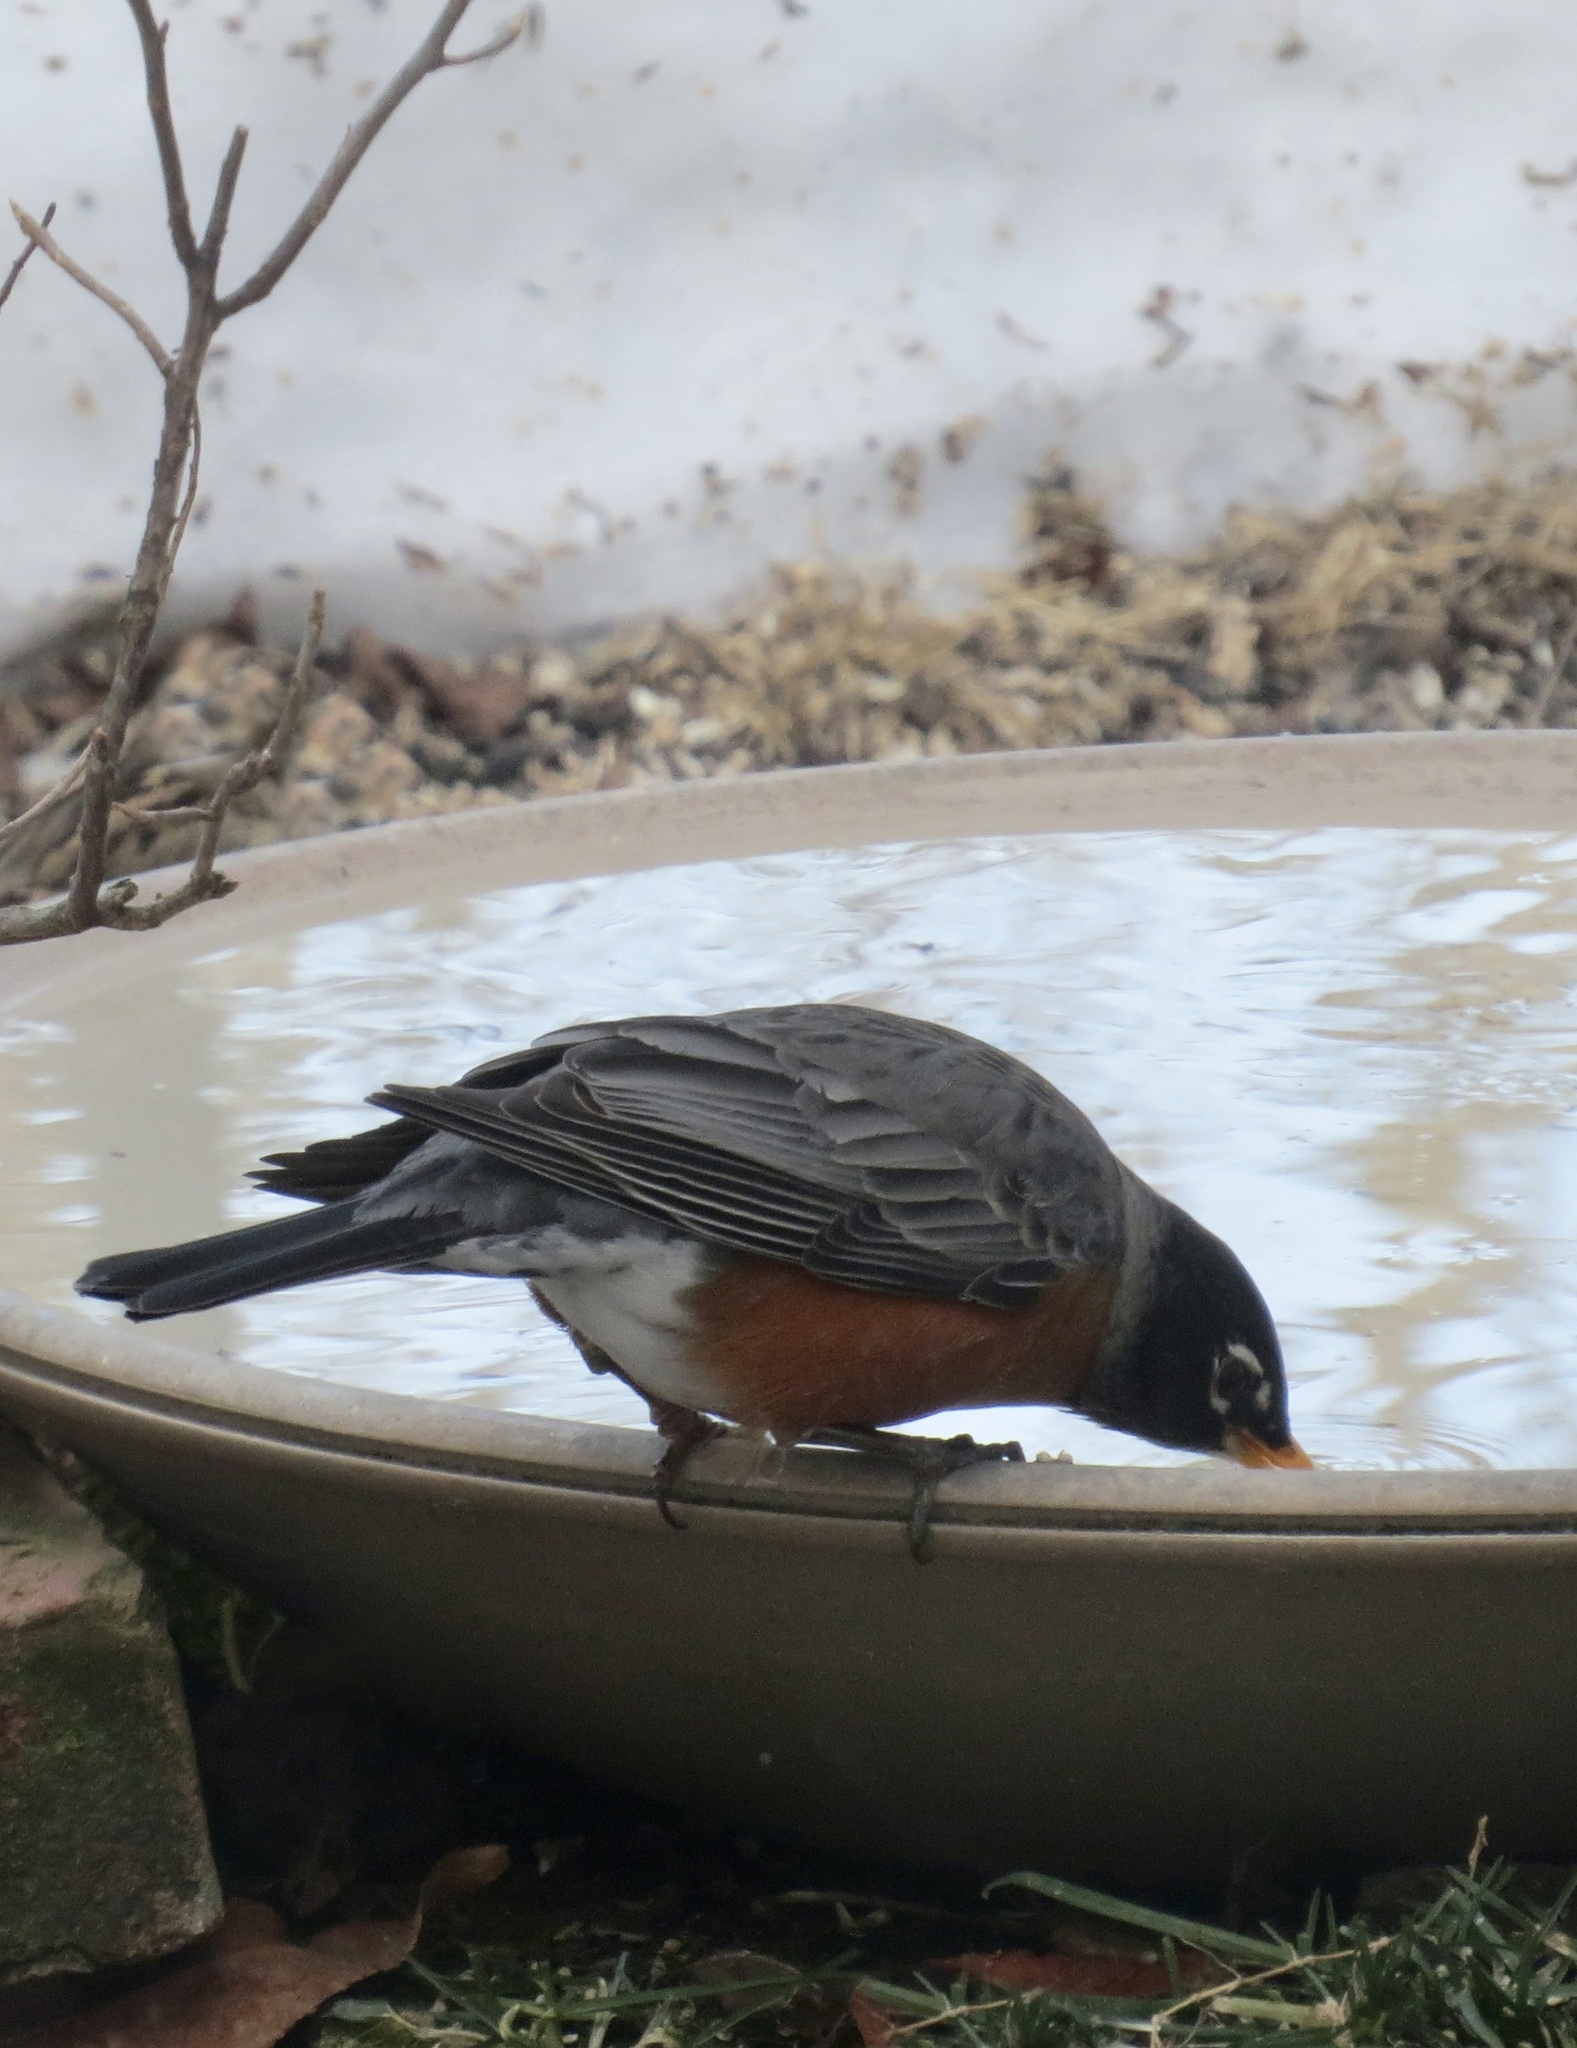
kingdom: Animalia
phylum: Chordata
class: Aves
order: Passeriformes
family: Turdidae
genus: Turdus
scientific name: Turdus migratorius
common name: American robin
